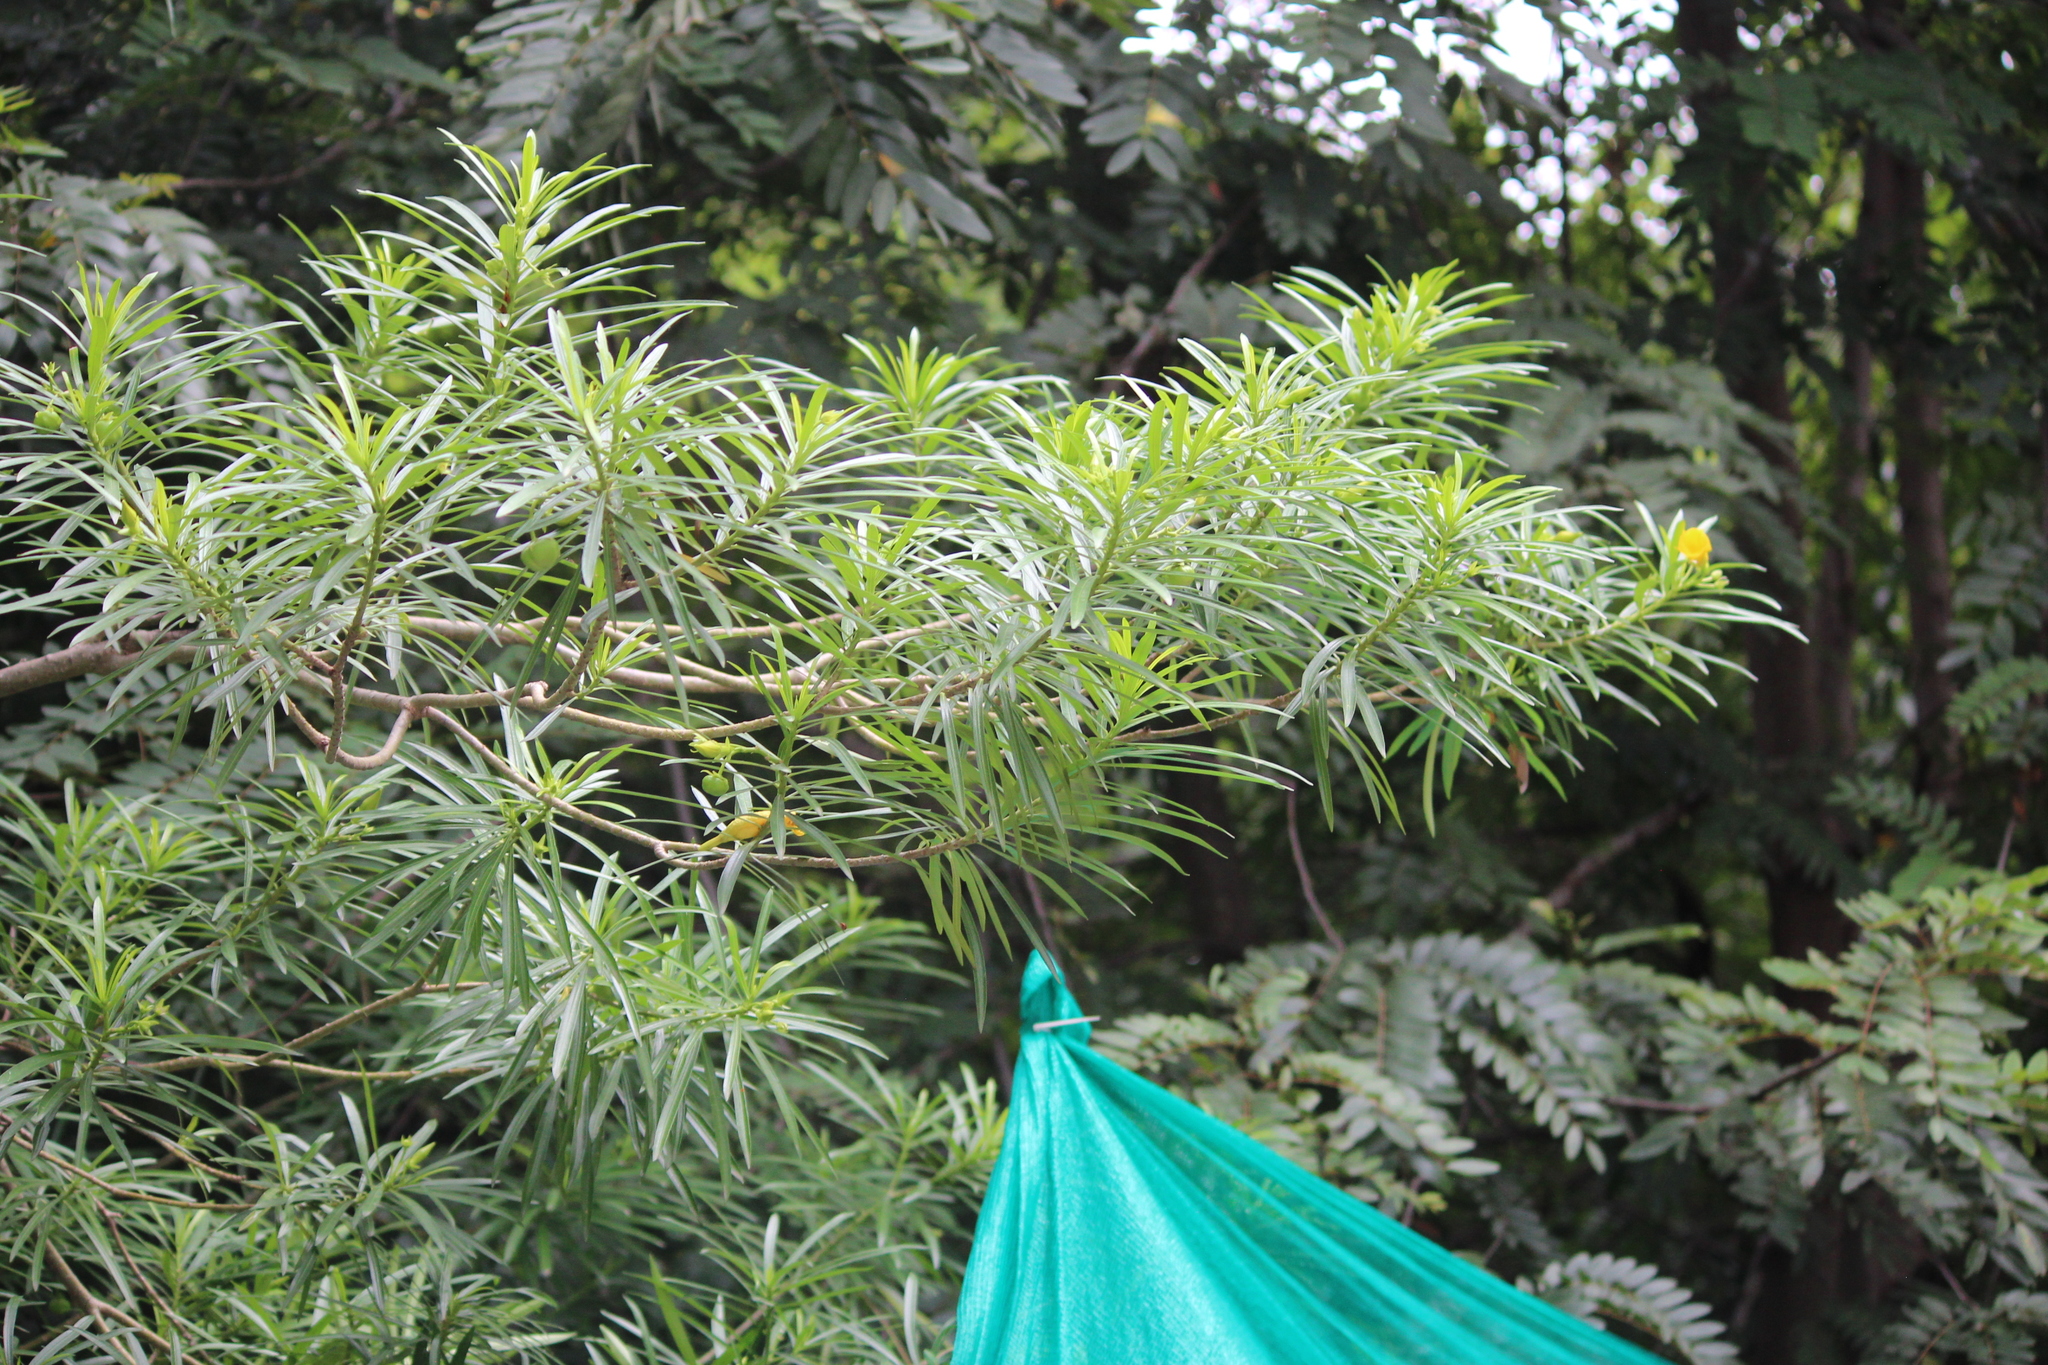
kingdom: Plantae
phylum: Tracheophyta
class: Magnoliopsida
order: Gentianales
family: Apocynaceae
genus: Cascabela
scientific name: Cascabela thevetia
